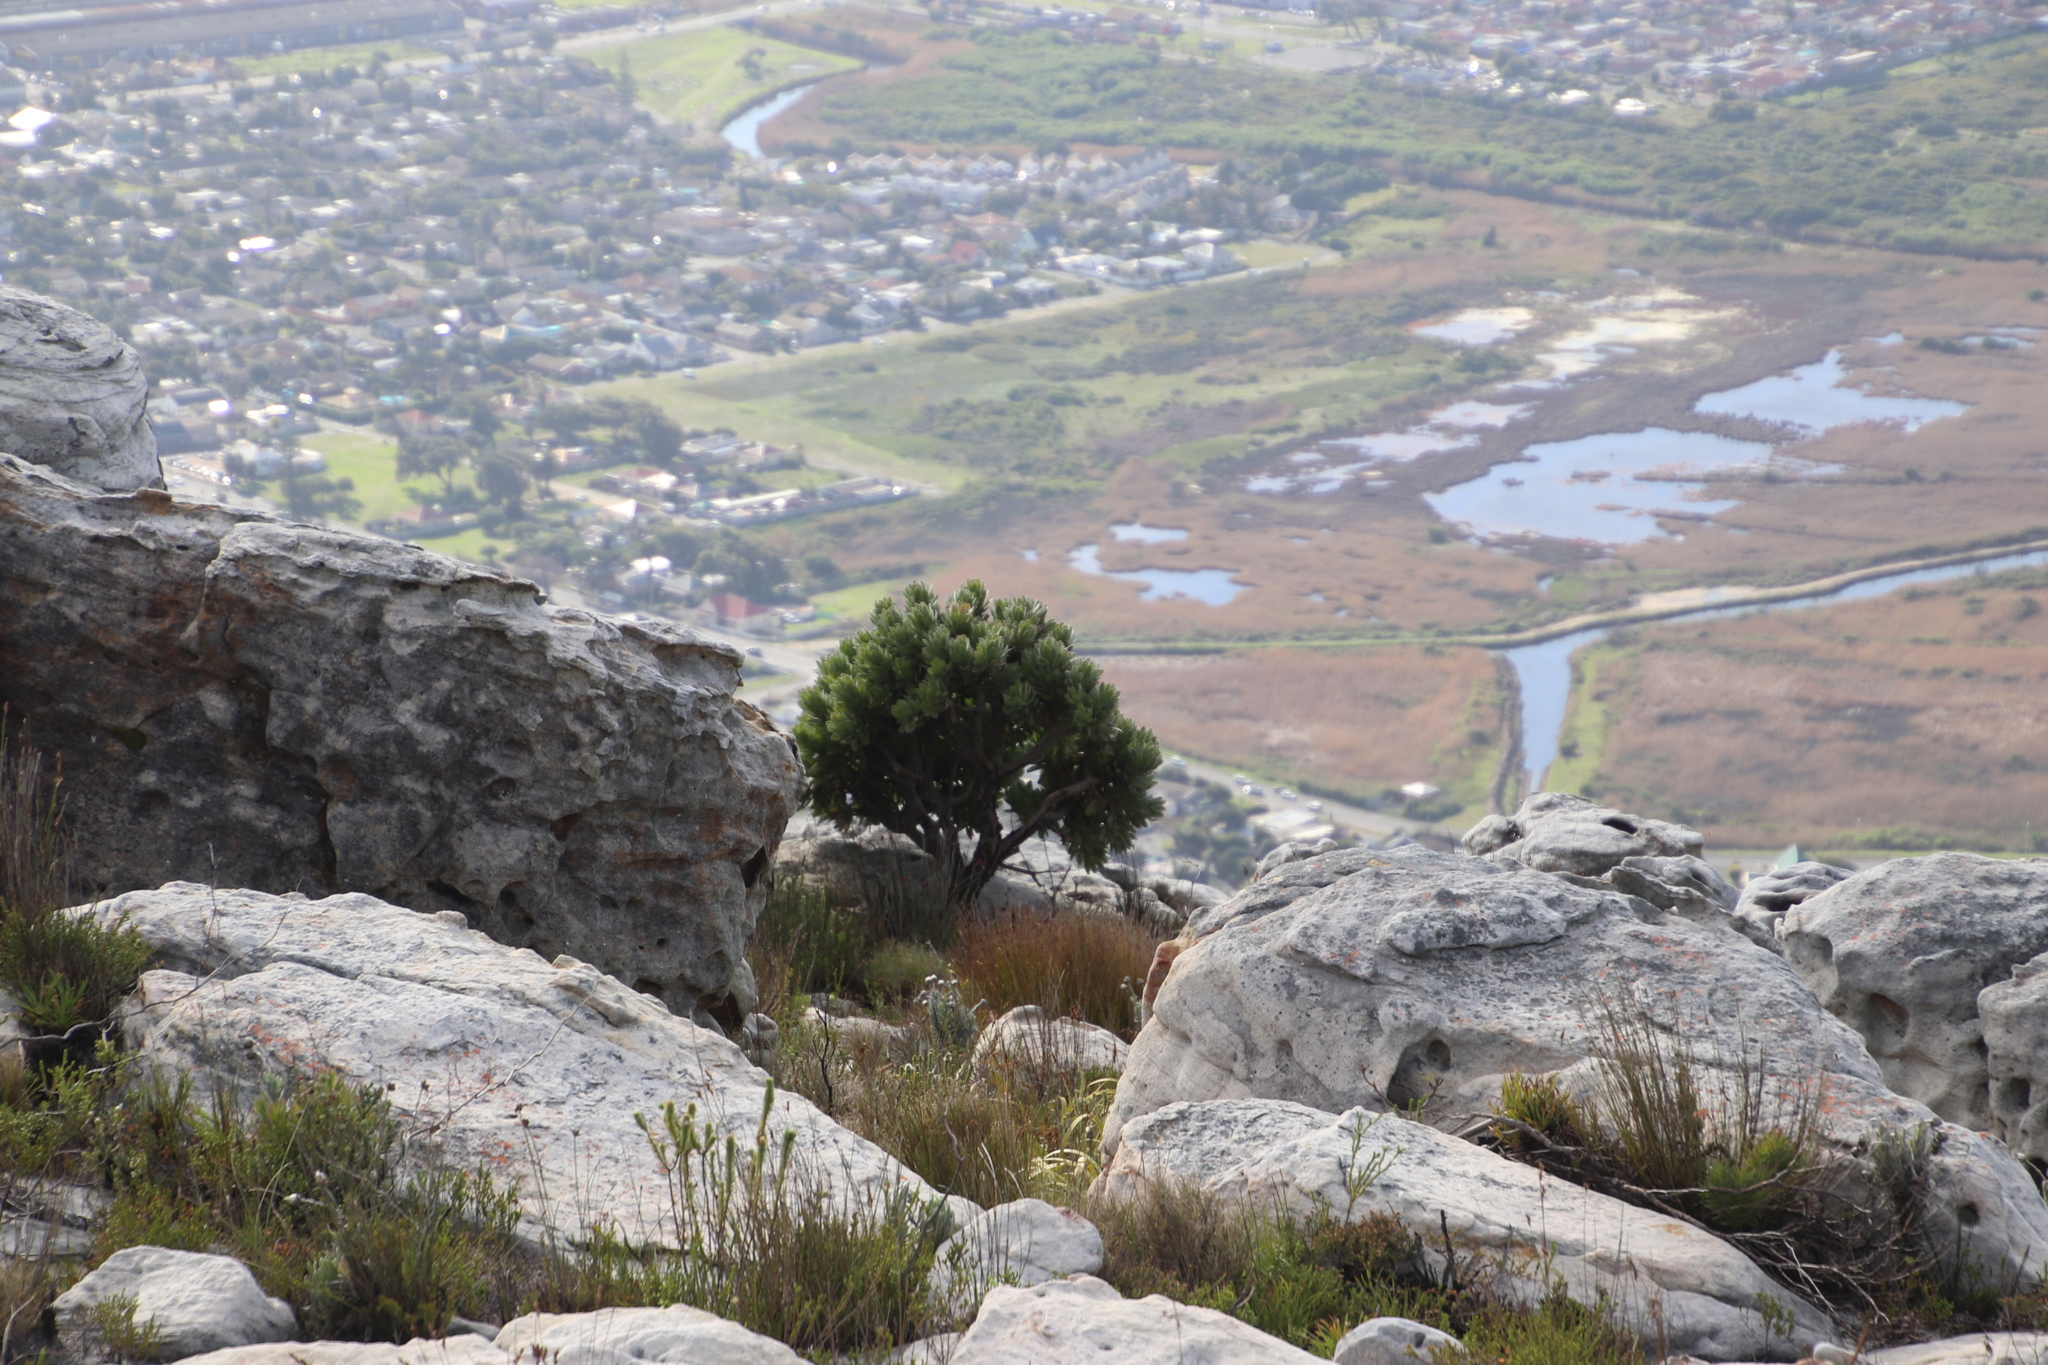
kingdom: Plantae
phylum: Tracheophyta
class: Magnoliopsida
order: Proteales
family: Proteaceae
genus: Mimetes
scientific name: Mimetes fimbriifolius
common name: Fringed bottlebrush
